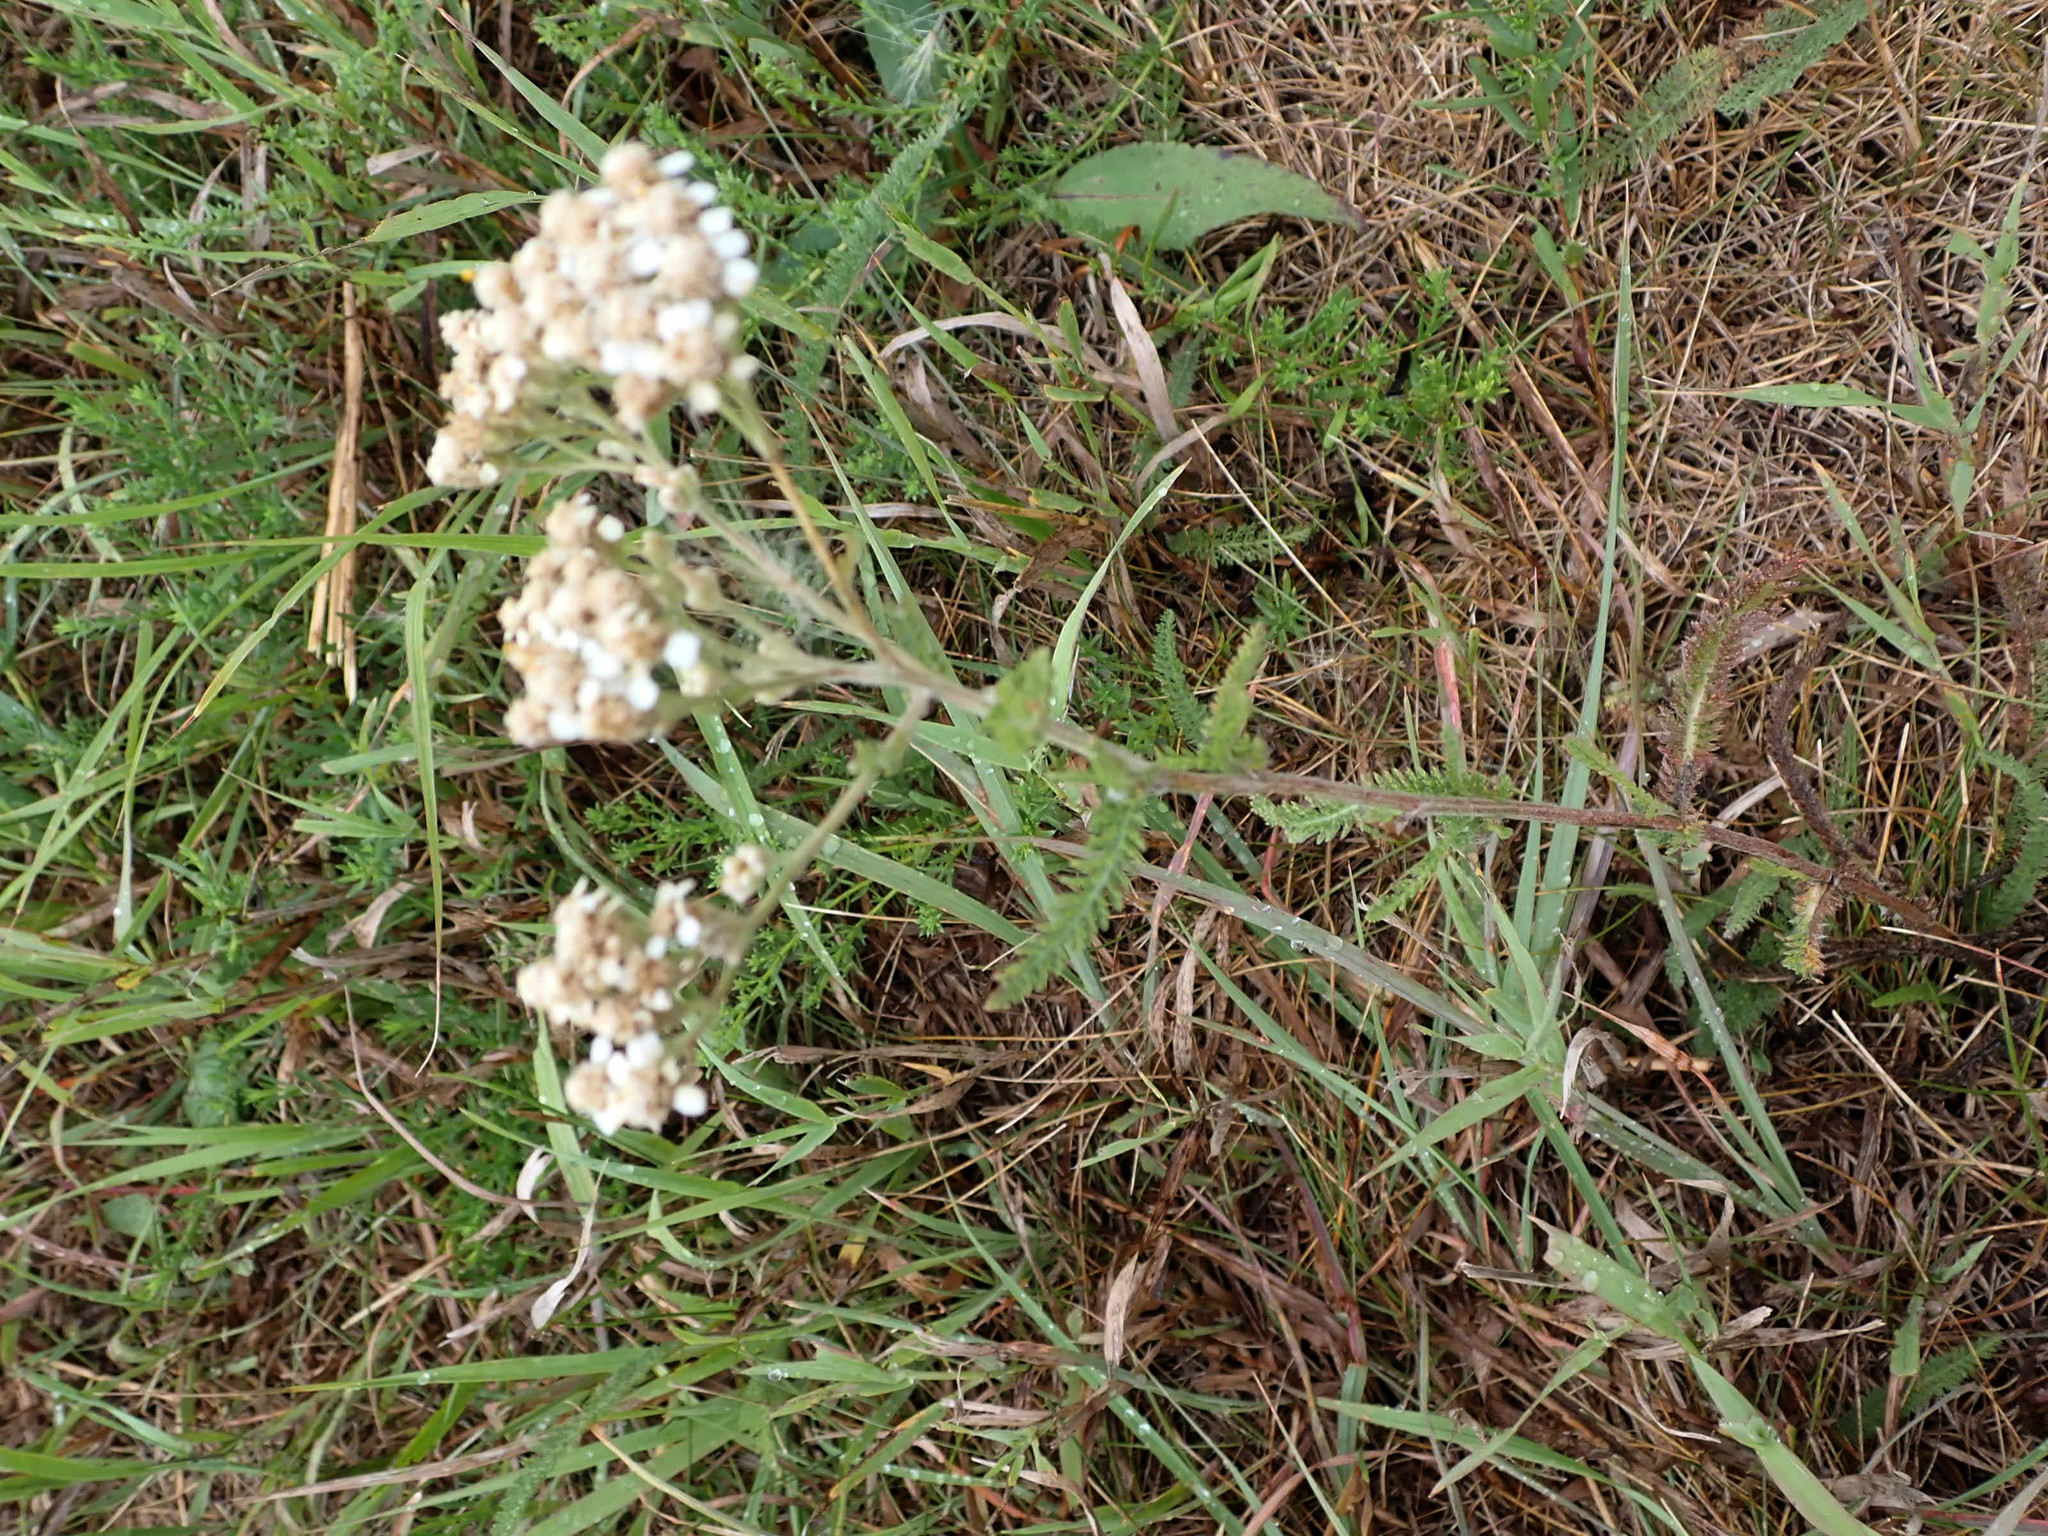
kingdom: Plantae
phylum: Tracheophyta
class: Magnoliopsida
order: Asterales
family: Asteraceae
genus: Achillea
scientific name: Achillea millefolium
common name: Yarrow
